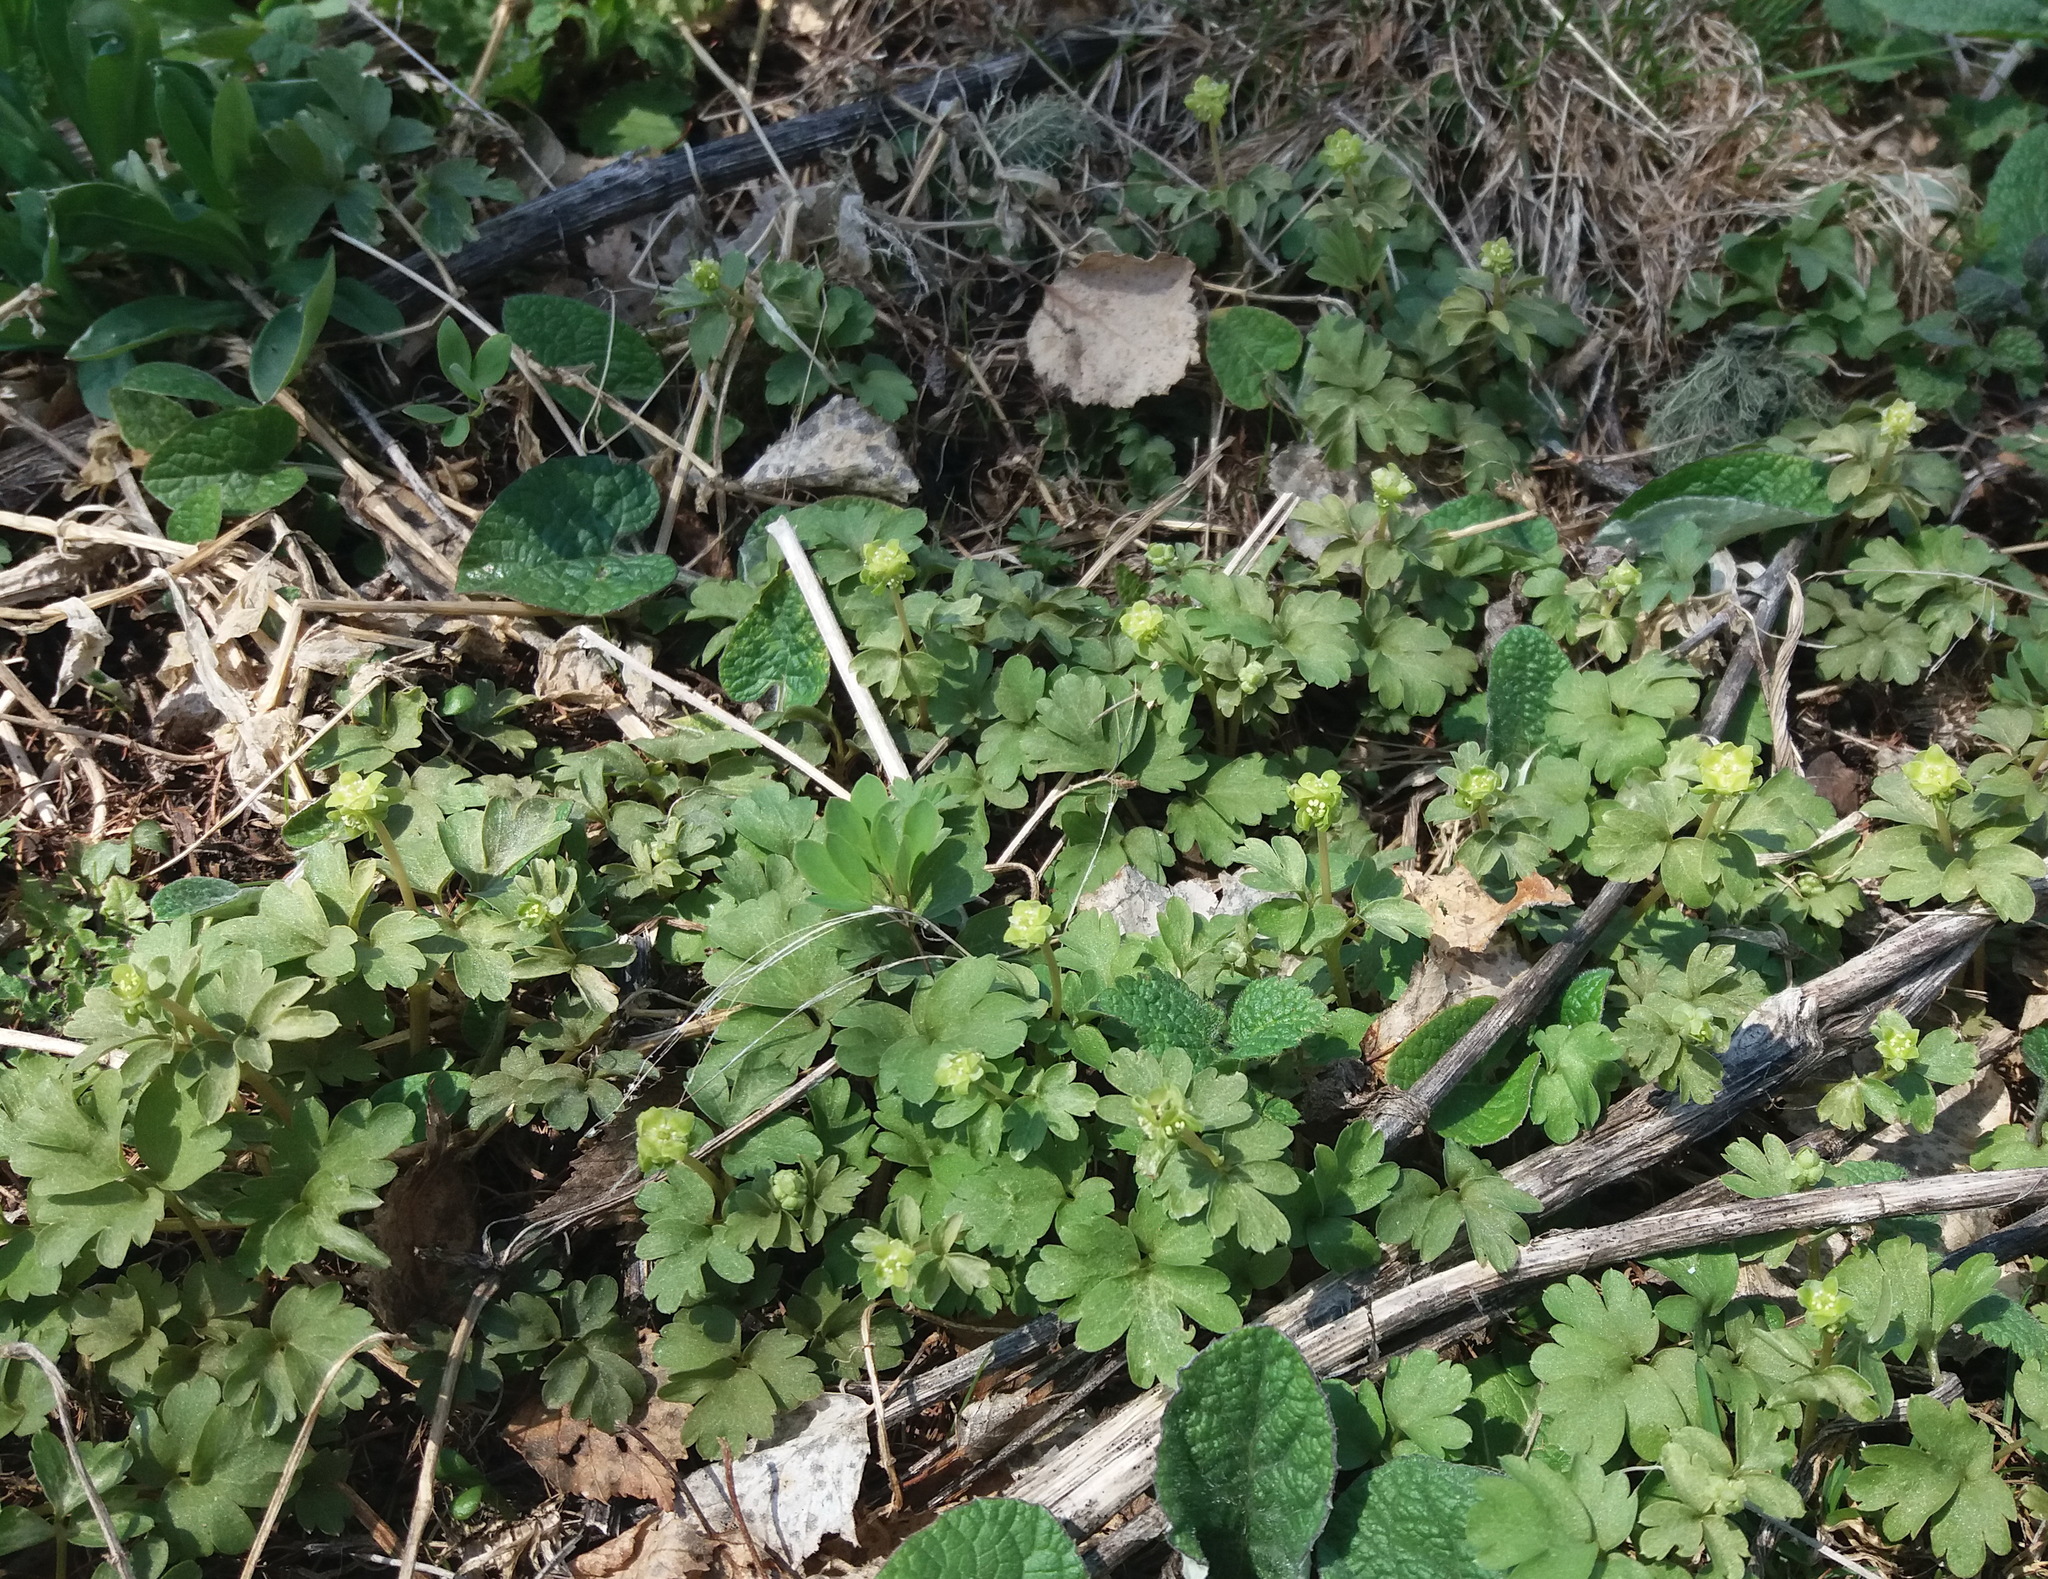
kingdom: Plantae
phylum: Tracheophyta
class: Magnoliopsida
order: Dipsacales
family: Viburnaceae
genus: Adoxa
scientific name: Adoxa moschatellina
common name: Moschatel
